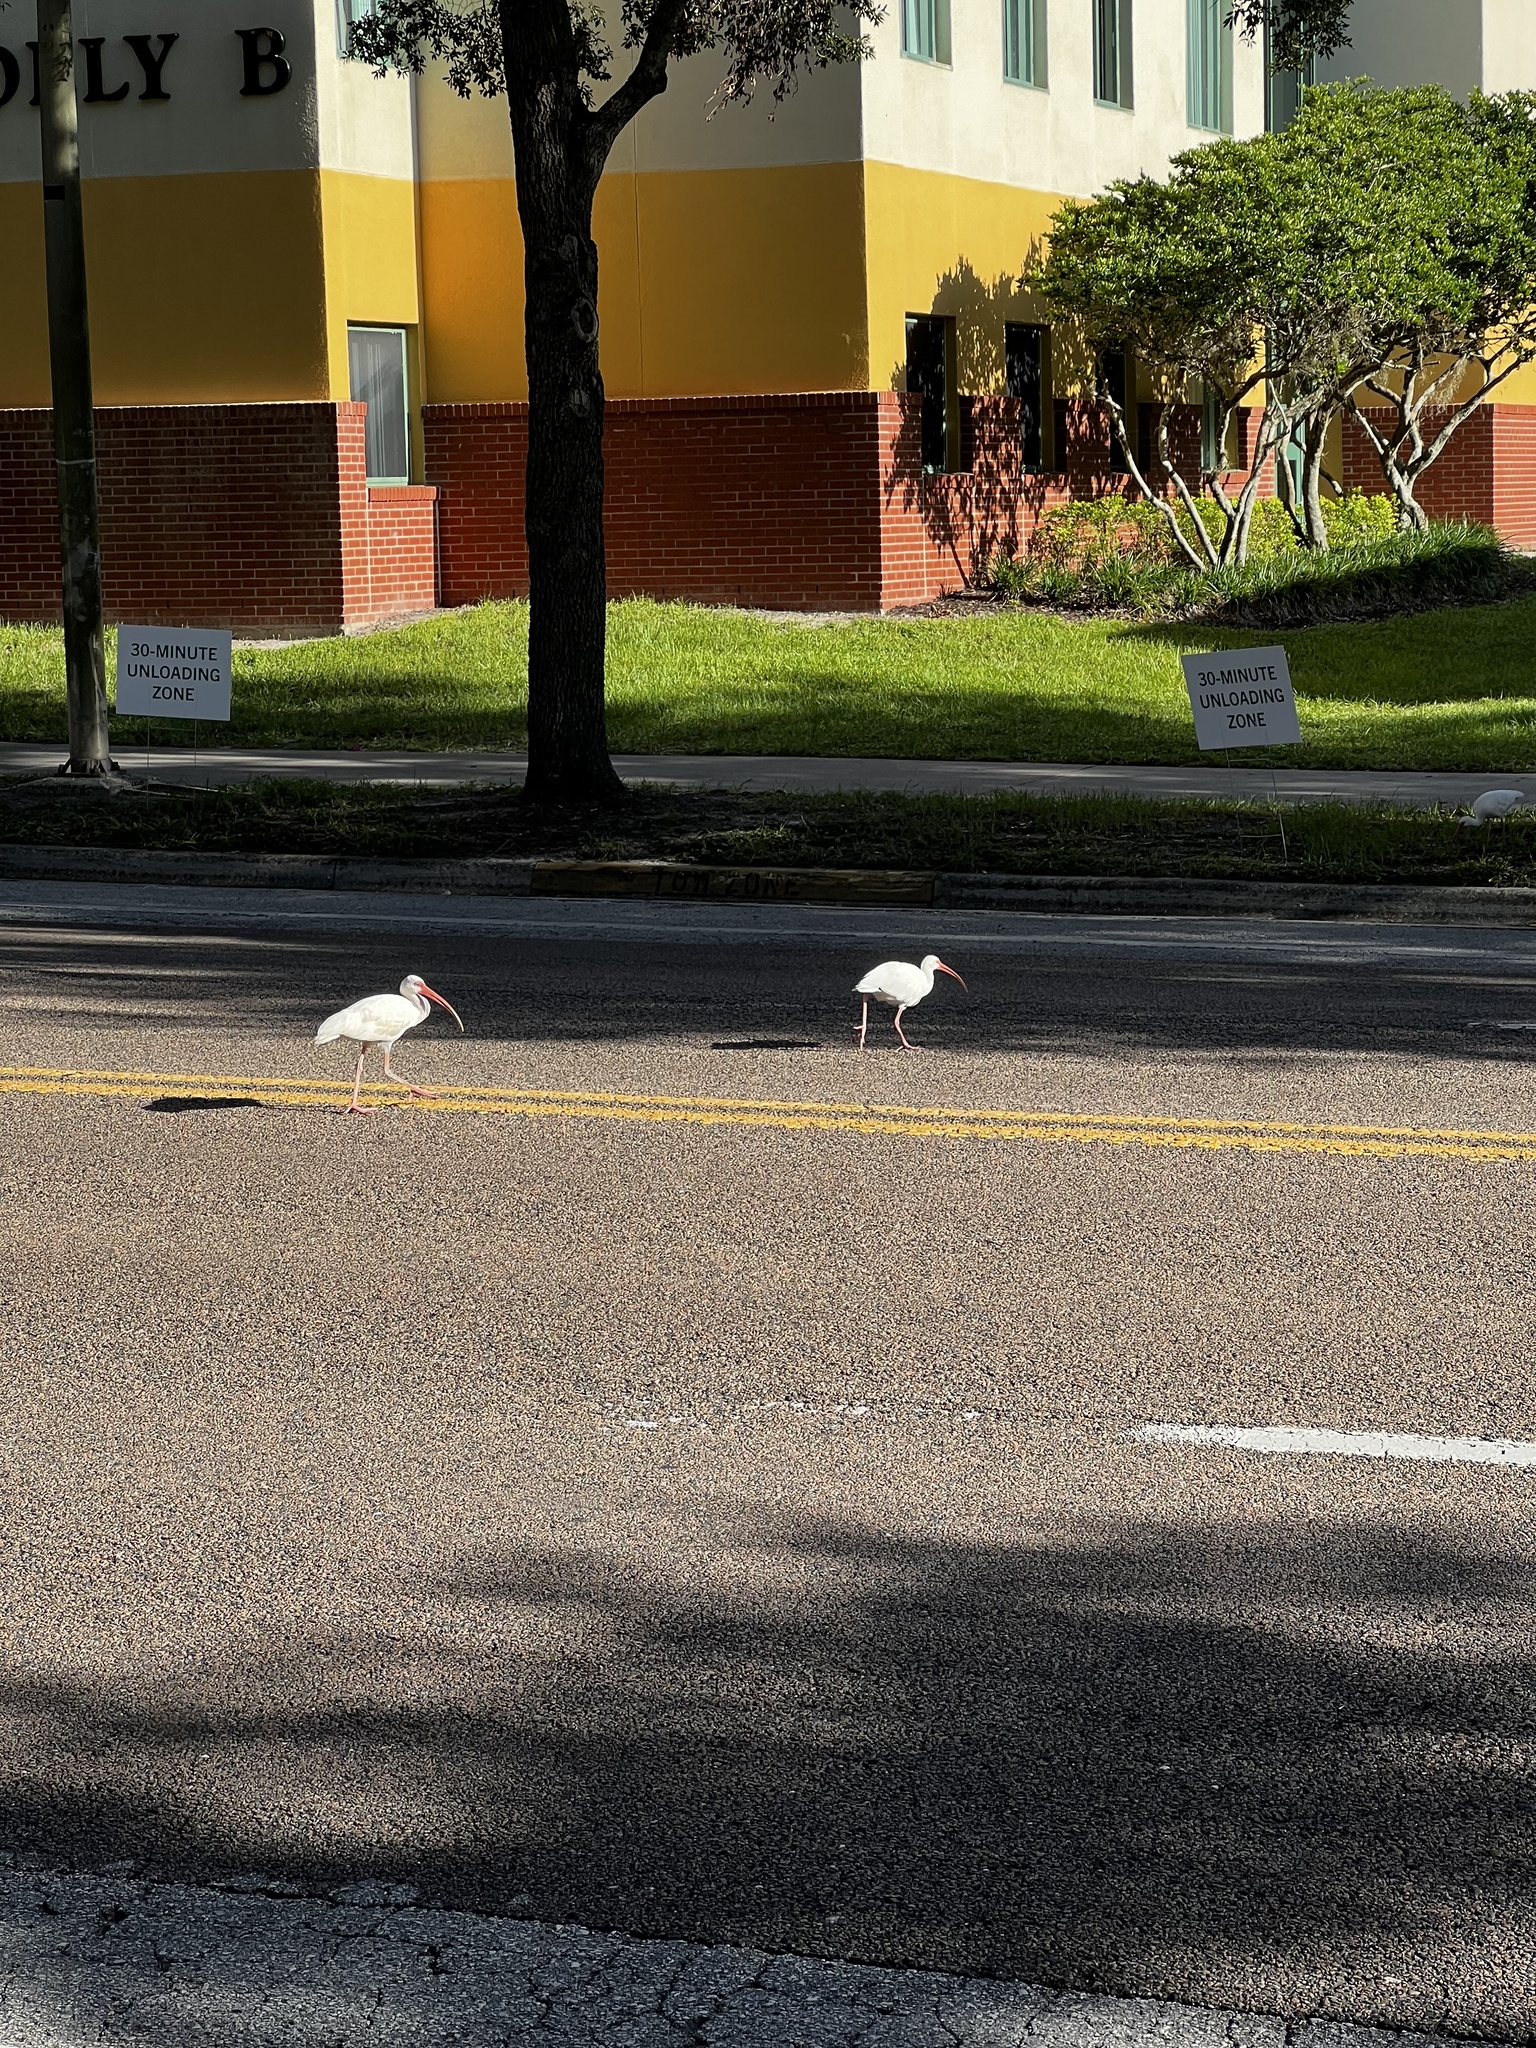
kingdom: Animalia
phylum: Chordata
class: Aves
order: Pelecaniformes
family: Threskiornithidae
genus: Eudocimus
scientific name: Eudocimus albus
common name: White ibis
